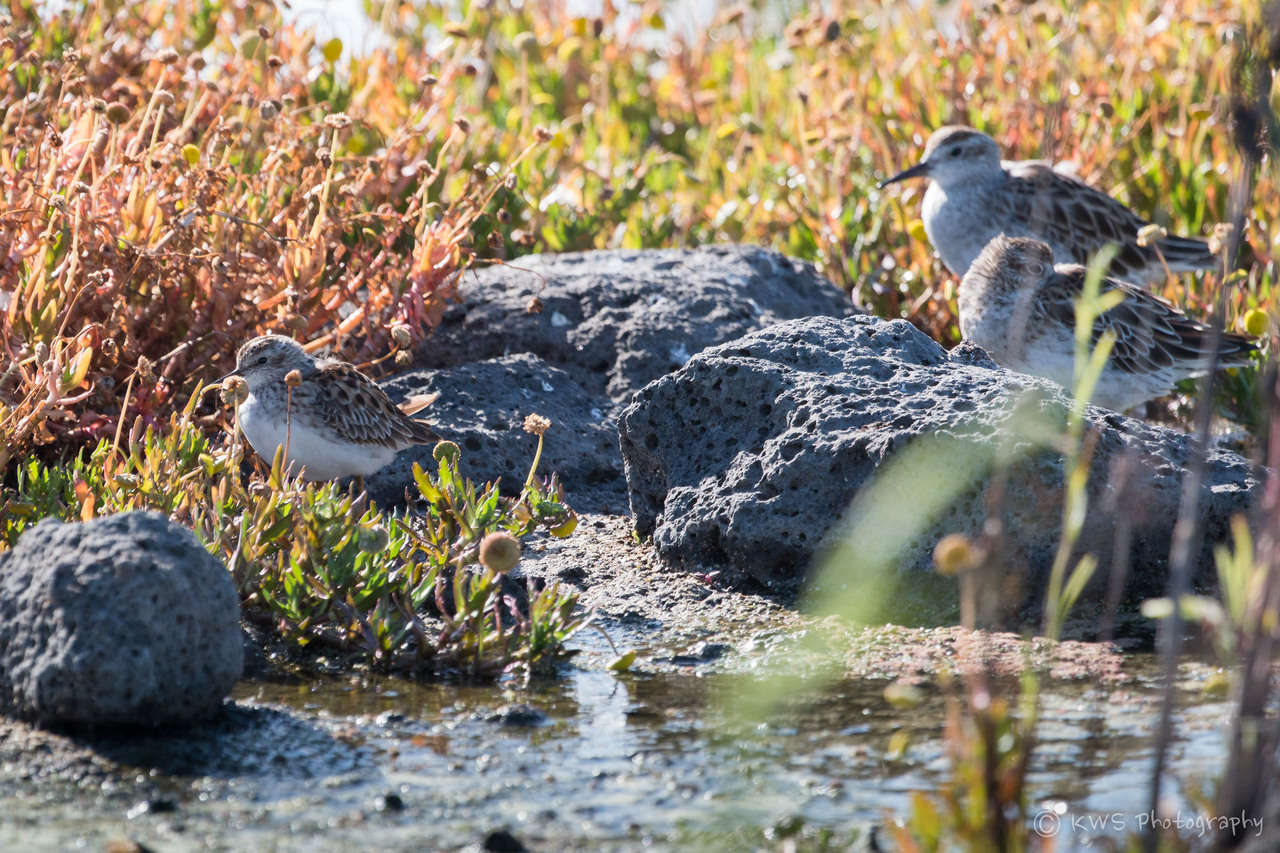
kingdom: Animalia
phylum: Chordata
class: Aves
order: Charadriiformes
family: Scolopacidae
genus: Calidris
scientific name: Calidris subminuta
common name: Long-toed stint
